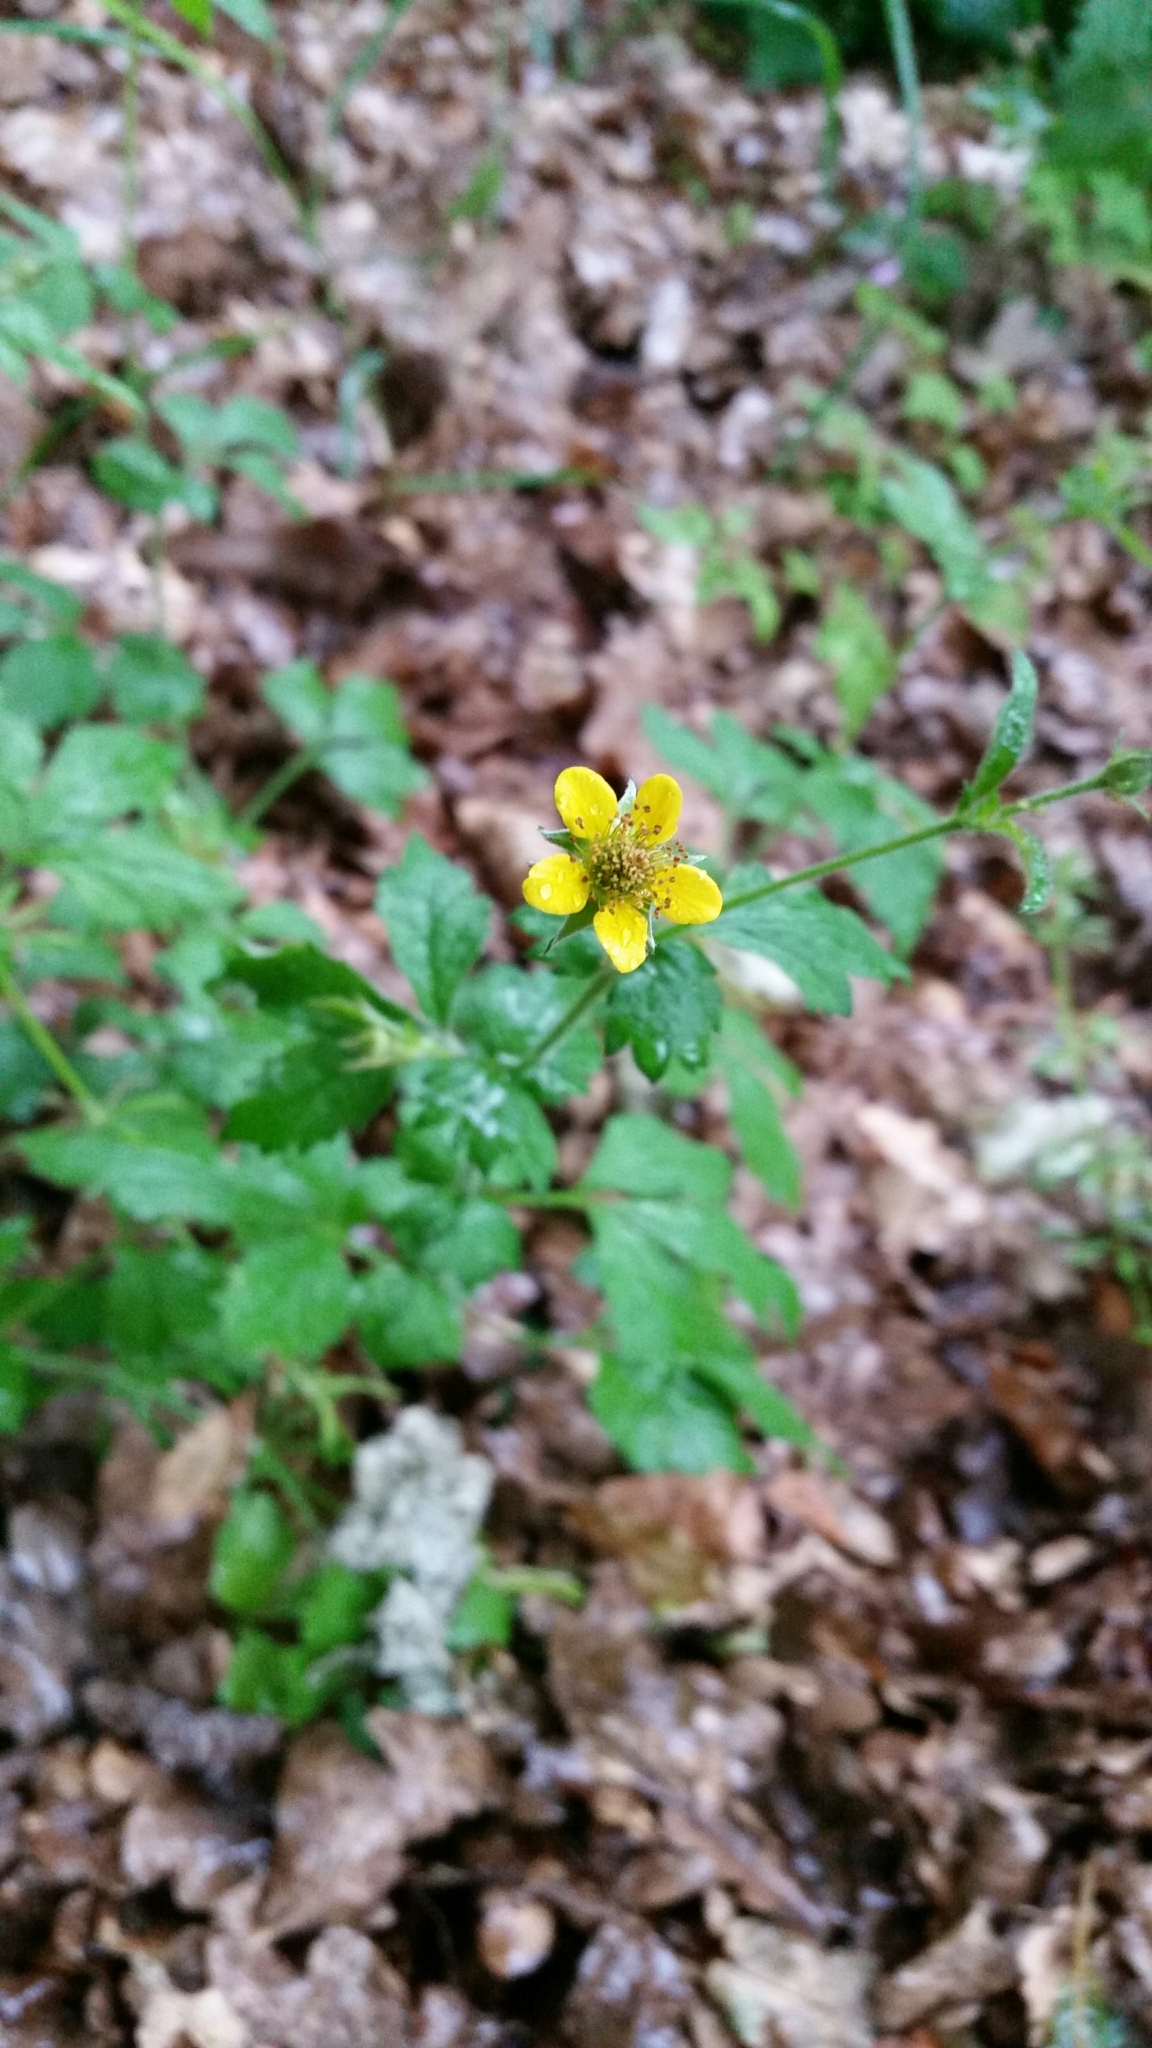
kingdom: Plantae
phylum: Tracheophyta
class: Magnoliopsida
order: Rosales
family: Rosaceae
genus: Geum
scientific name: Geum urbanum
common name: Wood avens
